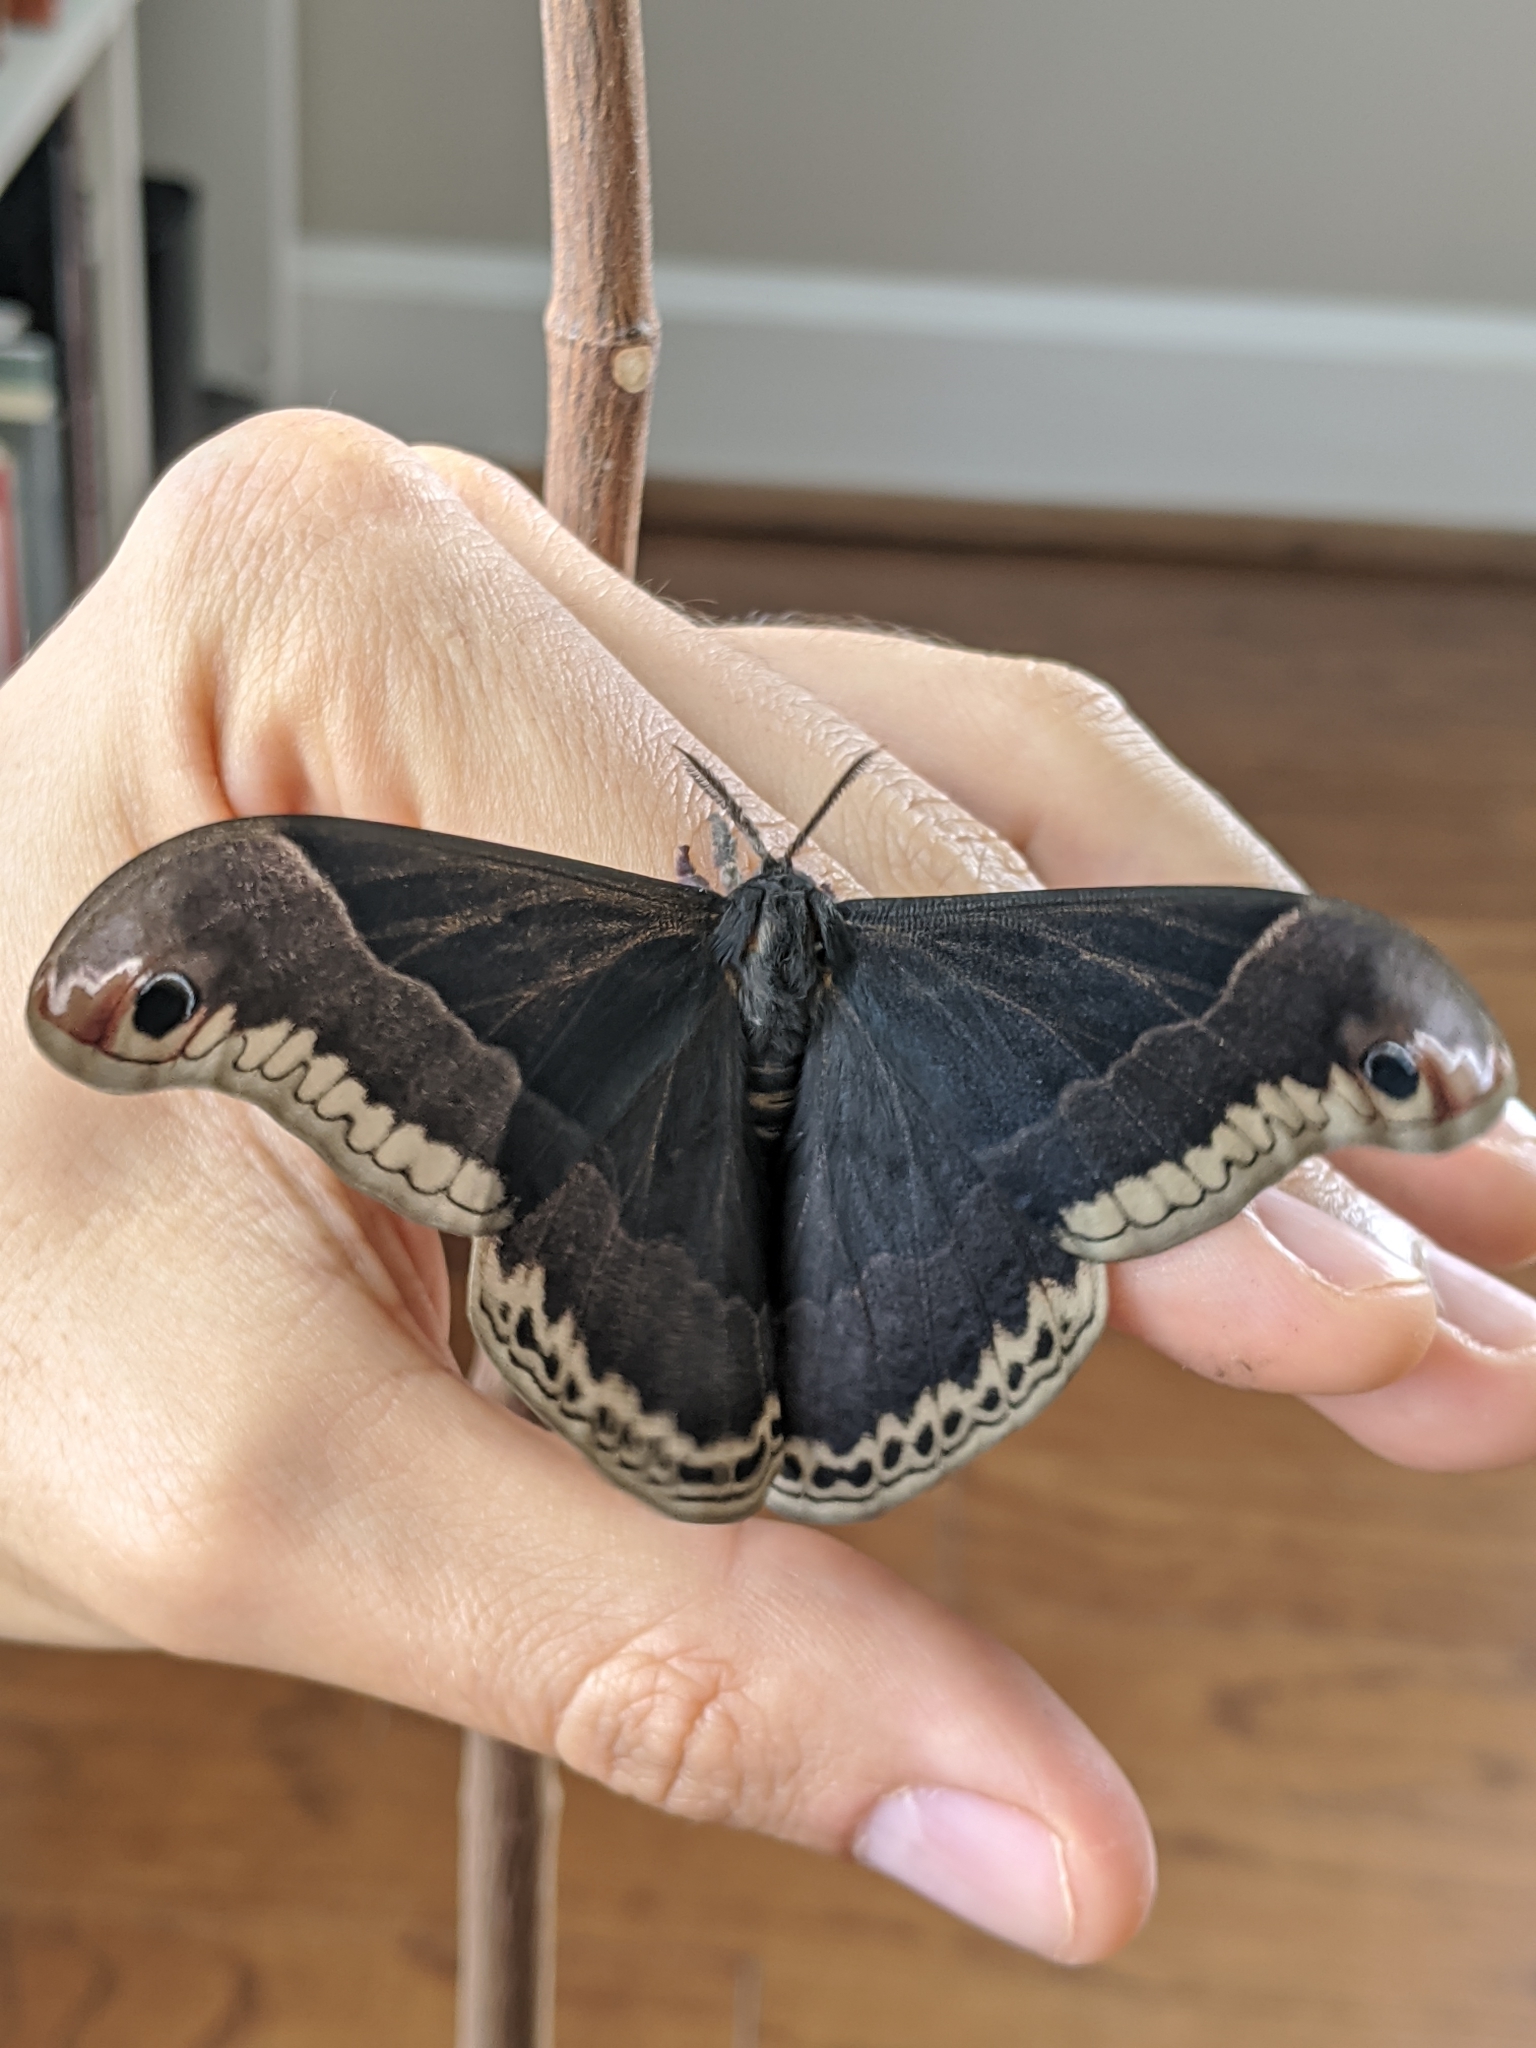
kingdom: Animalia
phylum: Arthropoda
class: Insecta
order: Lepidoptera
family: Saturniidae
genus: Callosamia
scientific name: Callosamia promethea
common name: Promethea silkmoth
